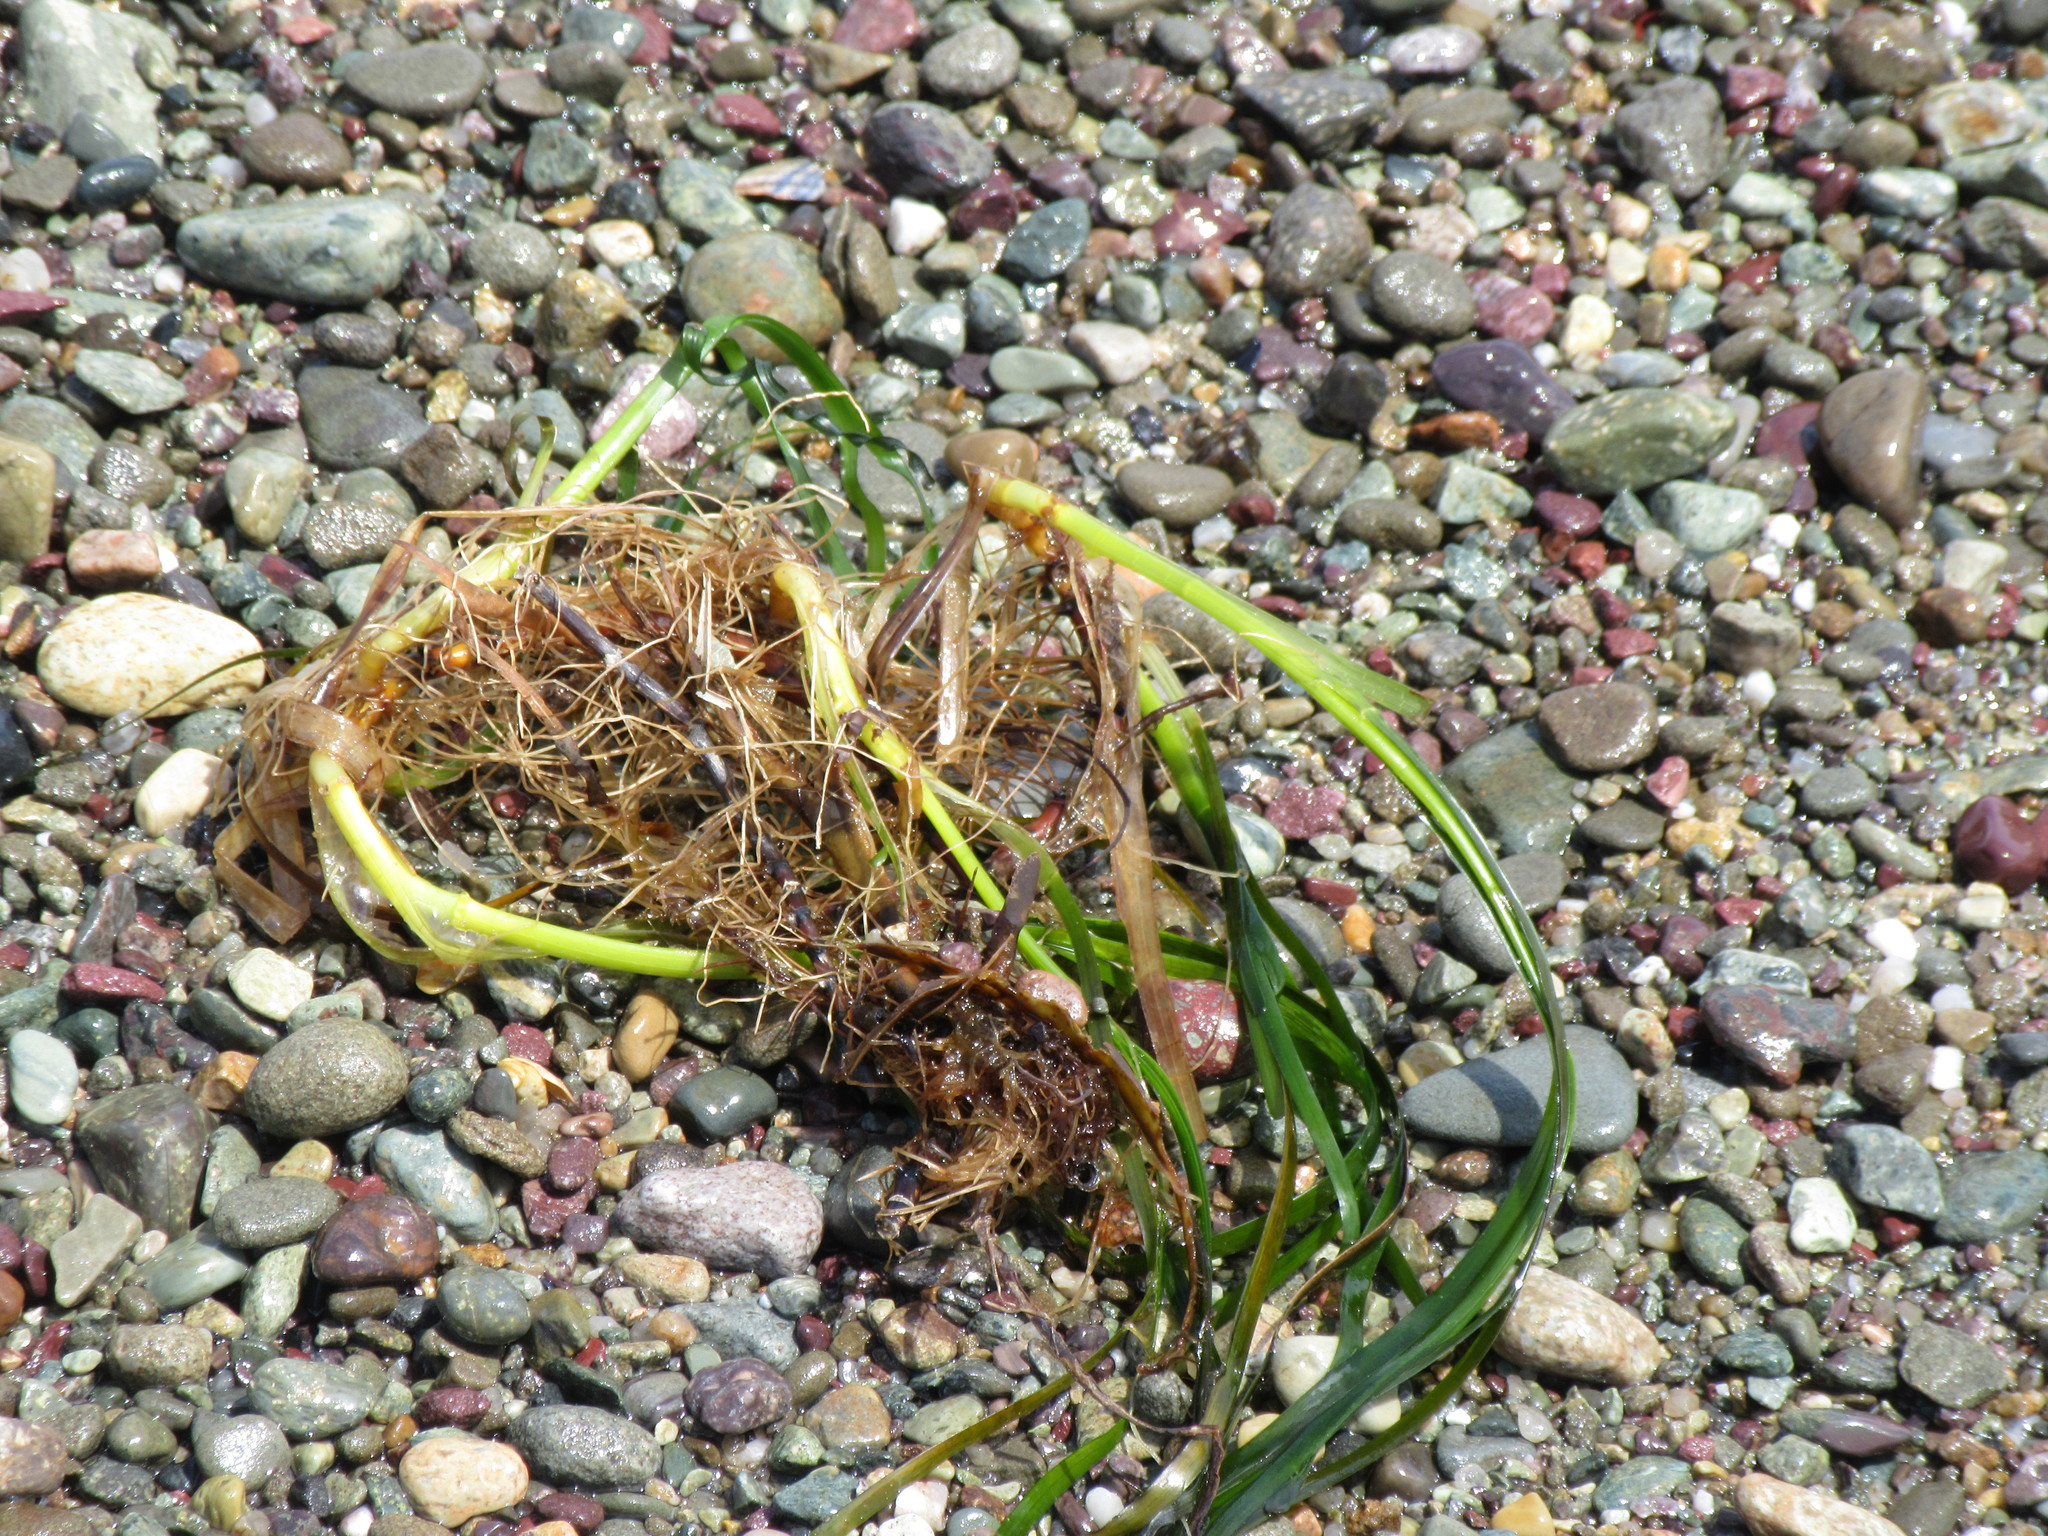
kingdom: Plantae
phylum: Tracheophyta
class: Liliopsida
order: Alismatales
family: Zosteraceae
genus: Zostera
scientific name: Zostera marina
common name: Eelgrass
